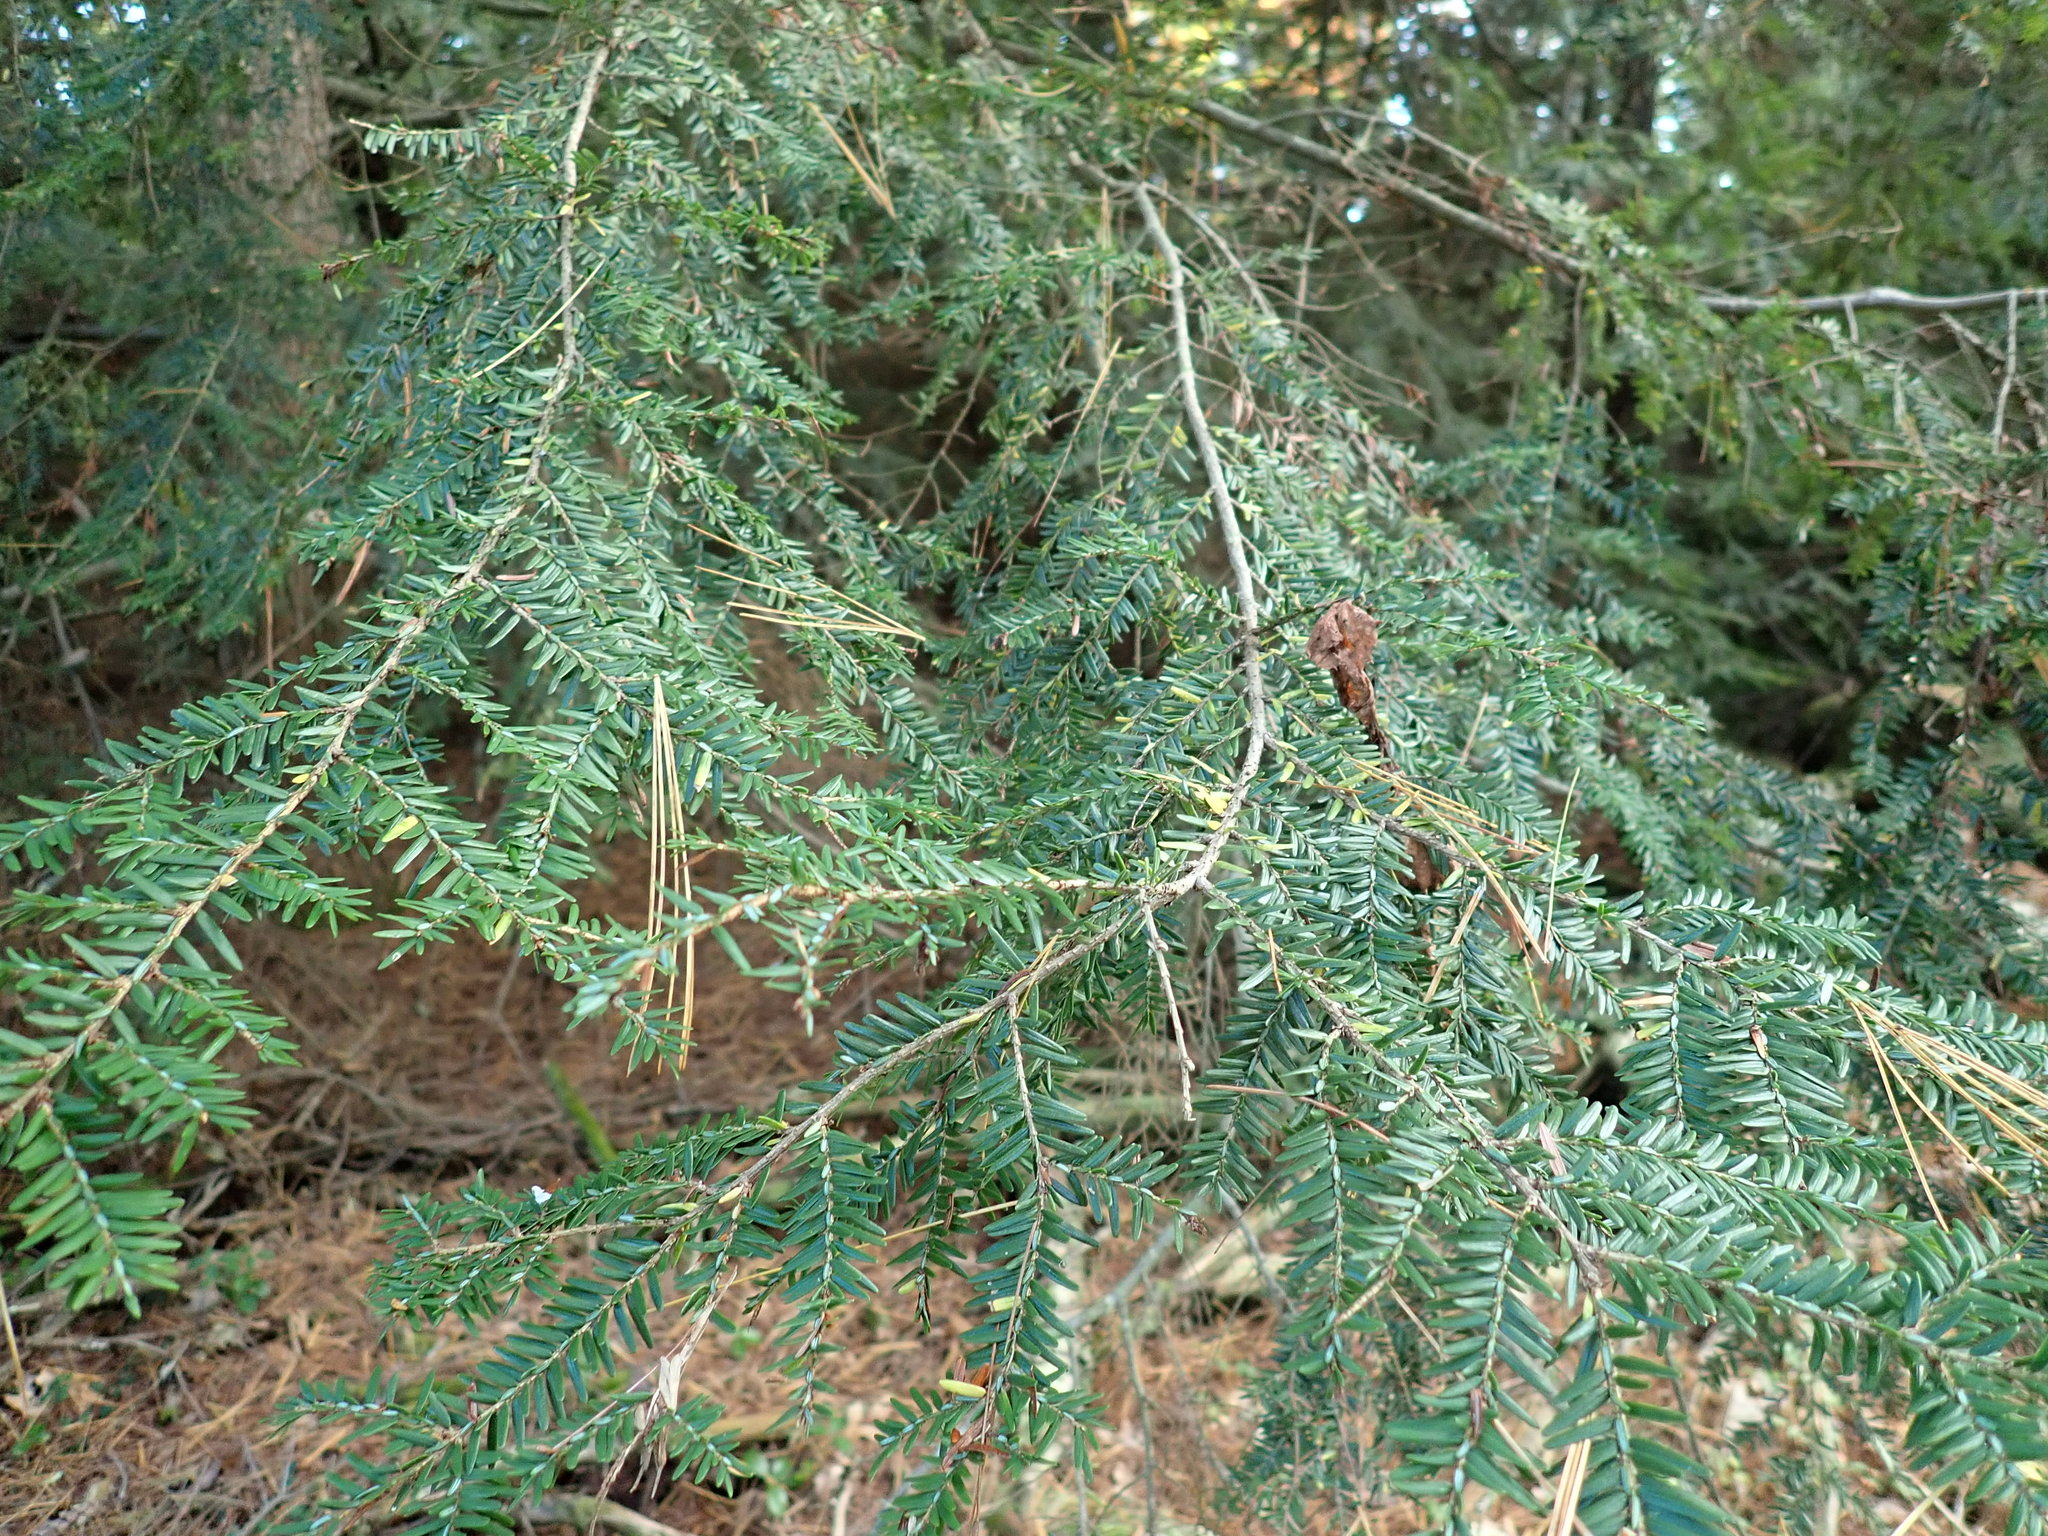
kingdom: Plantae
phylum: Tracheophyta
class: Pinopsida
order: Pinales
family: Pinaceae
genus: Tsuga
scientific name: Tsuga canadensis
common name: Eastern hemlock
